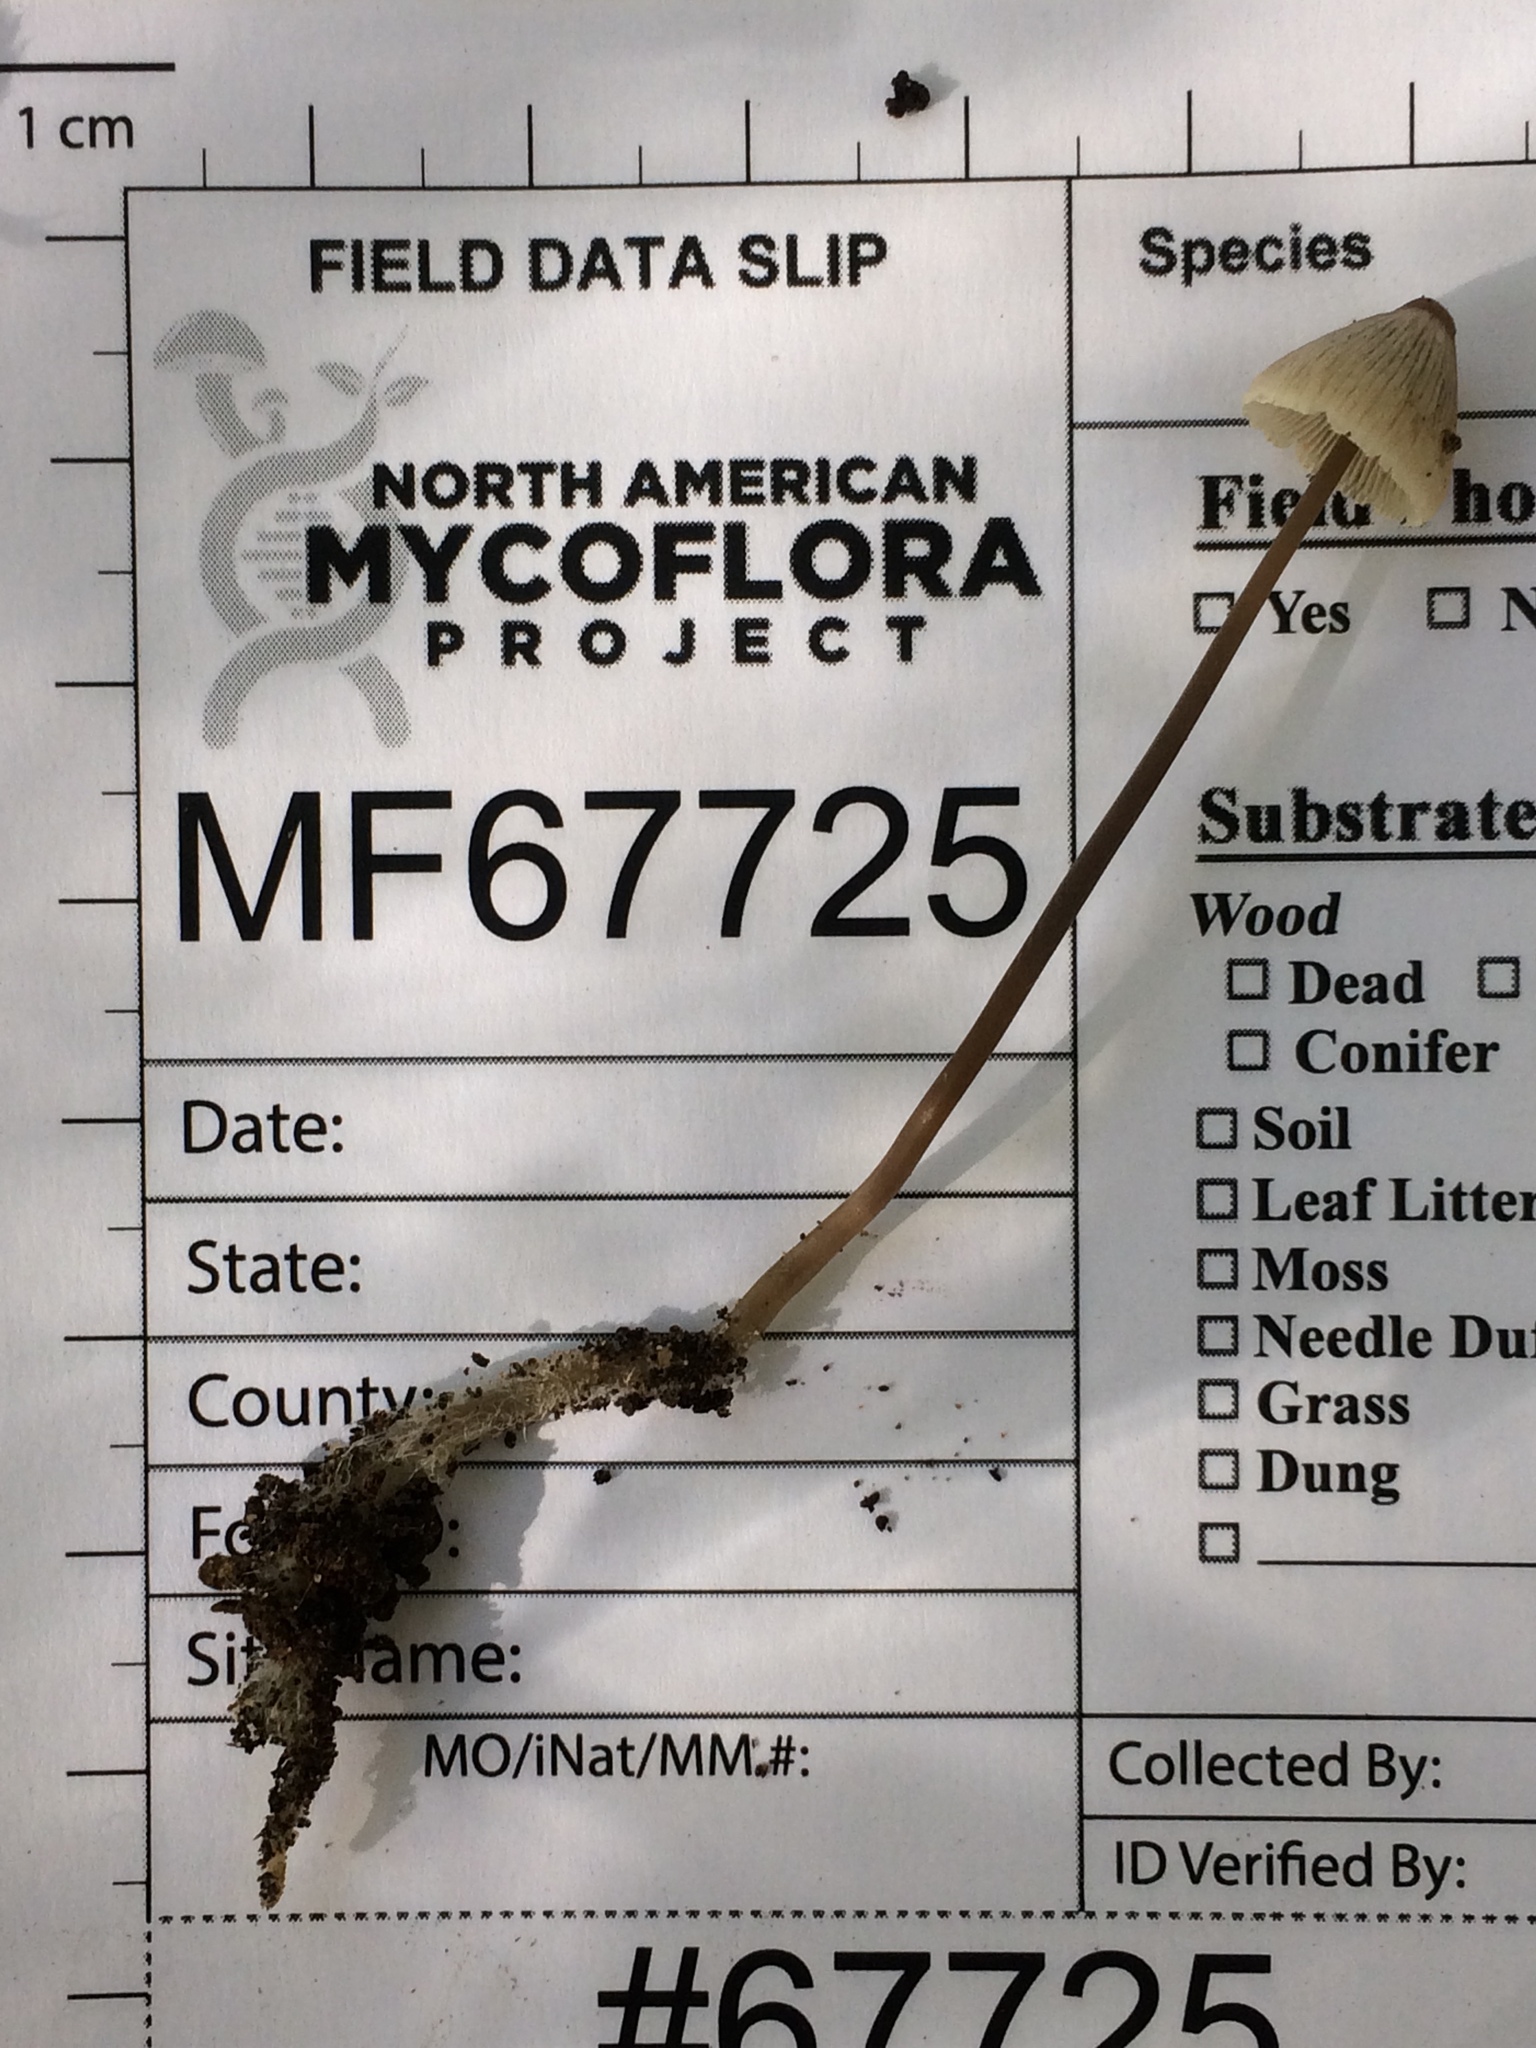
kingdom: Fungi
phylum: Basidiomycota
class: Agaricomycetes
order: Agaricales
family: Mycenaceae
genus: Mycena
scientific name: Mycena filopes
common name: Iodine bonnet
